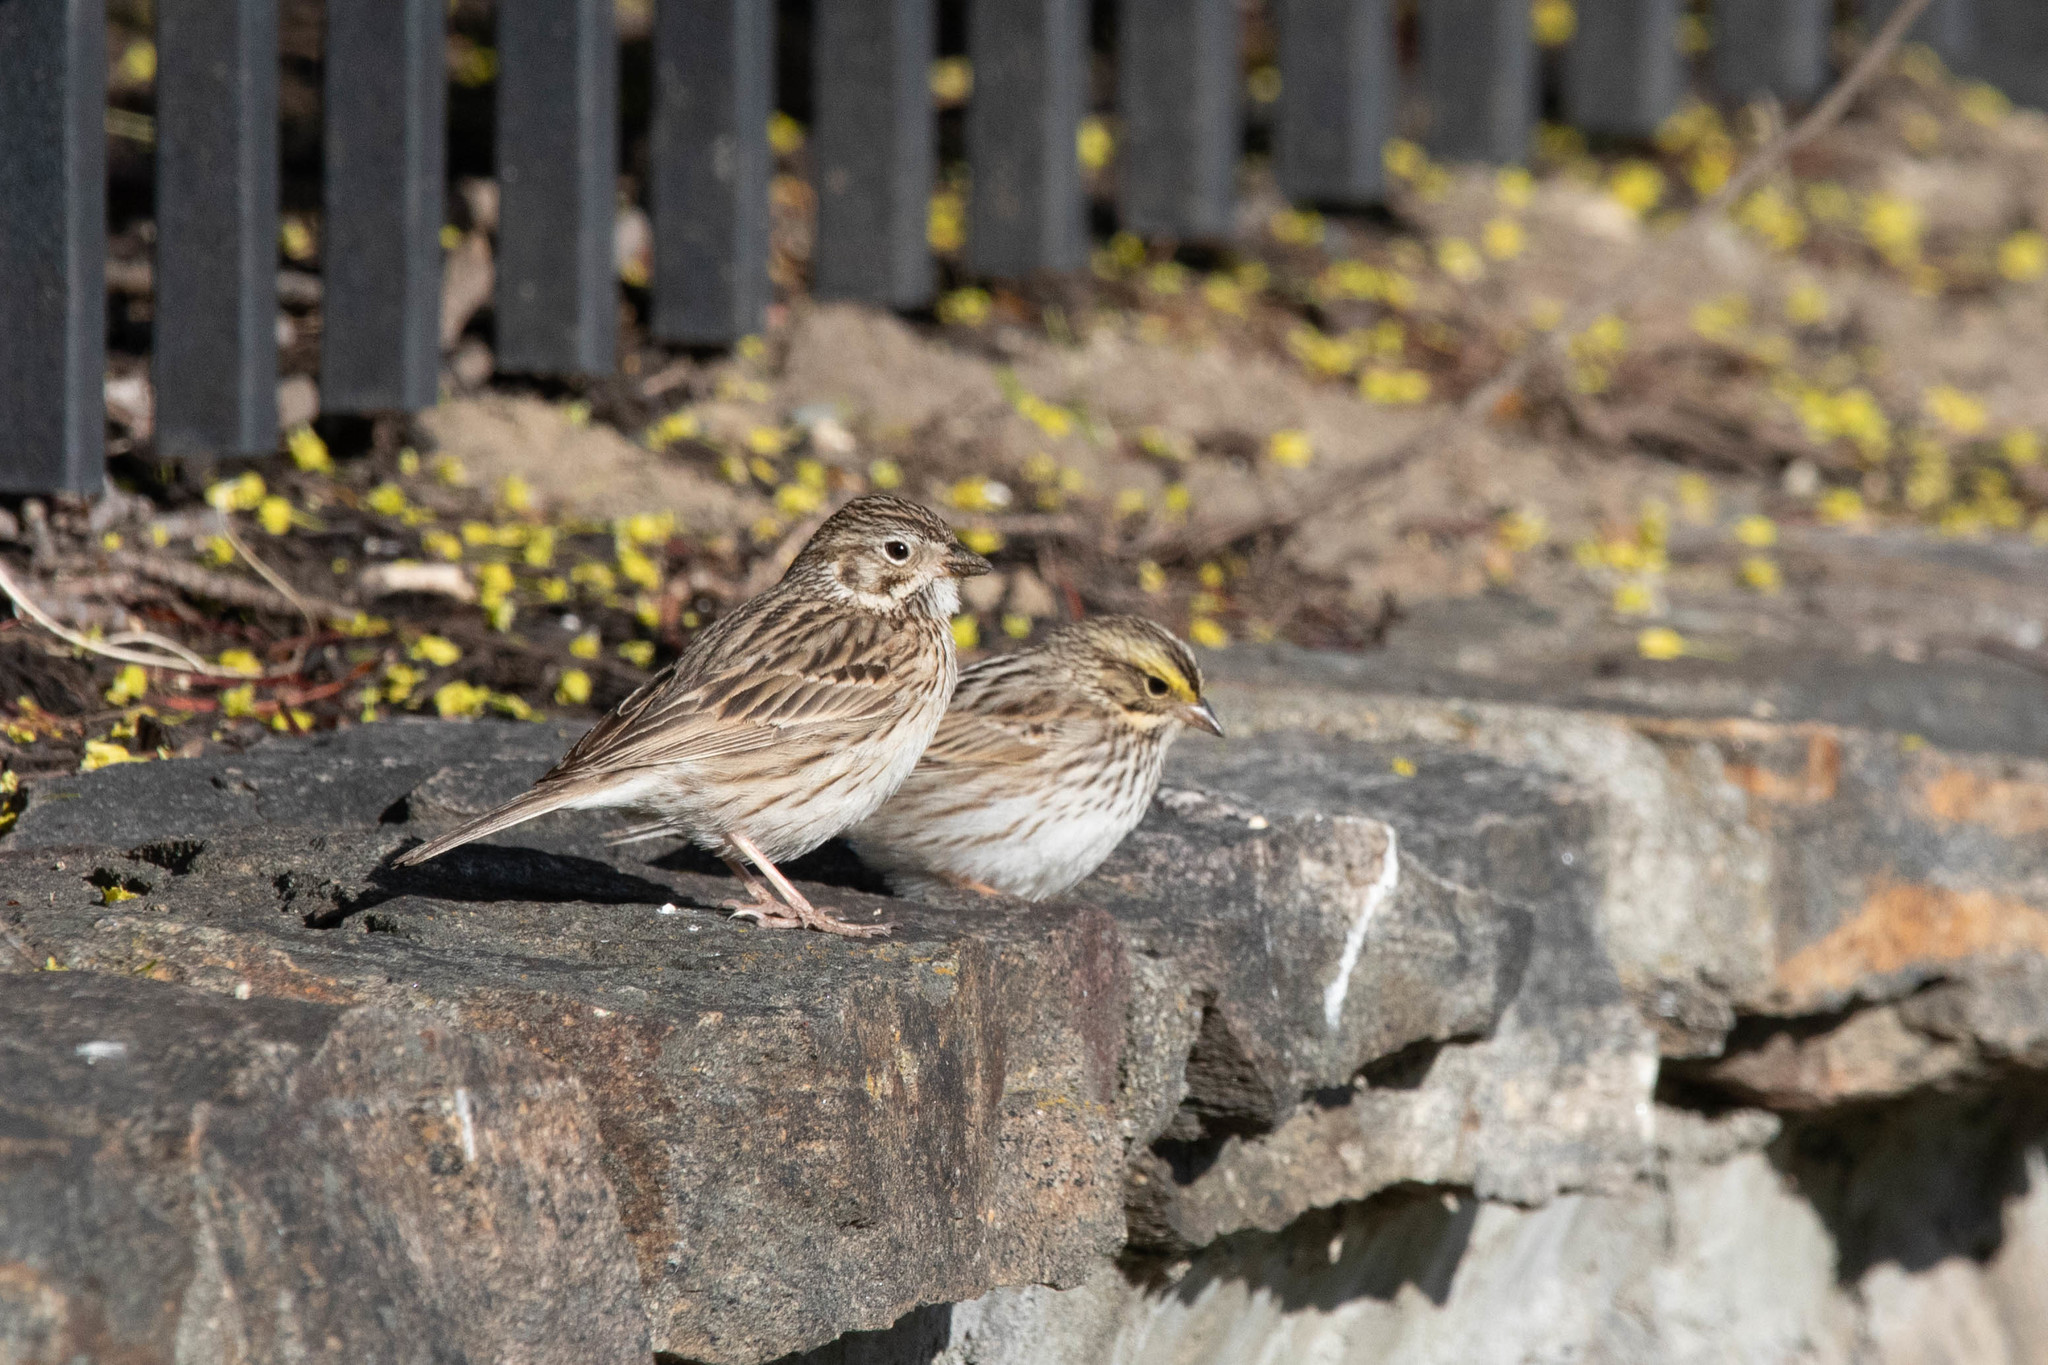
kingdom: Animalia
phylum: Chordata
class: Aves
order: Passeriformes
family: Passerellidae
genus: Passerculus
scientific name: Passerculus sandwichensis
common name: Savannah sparrow
